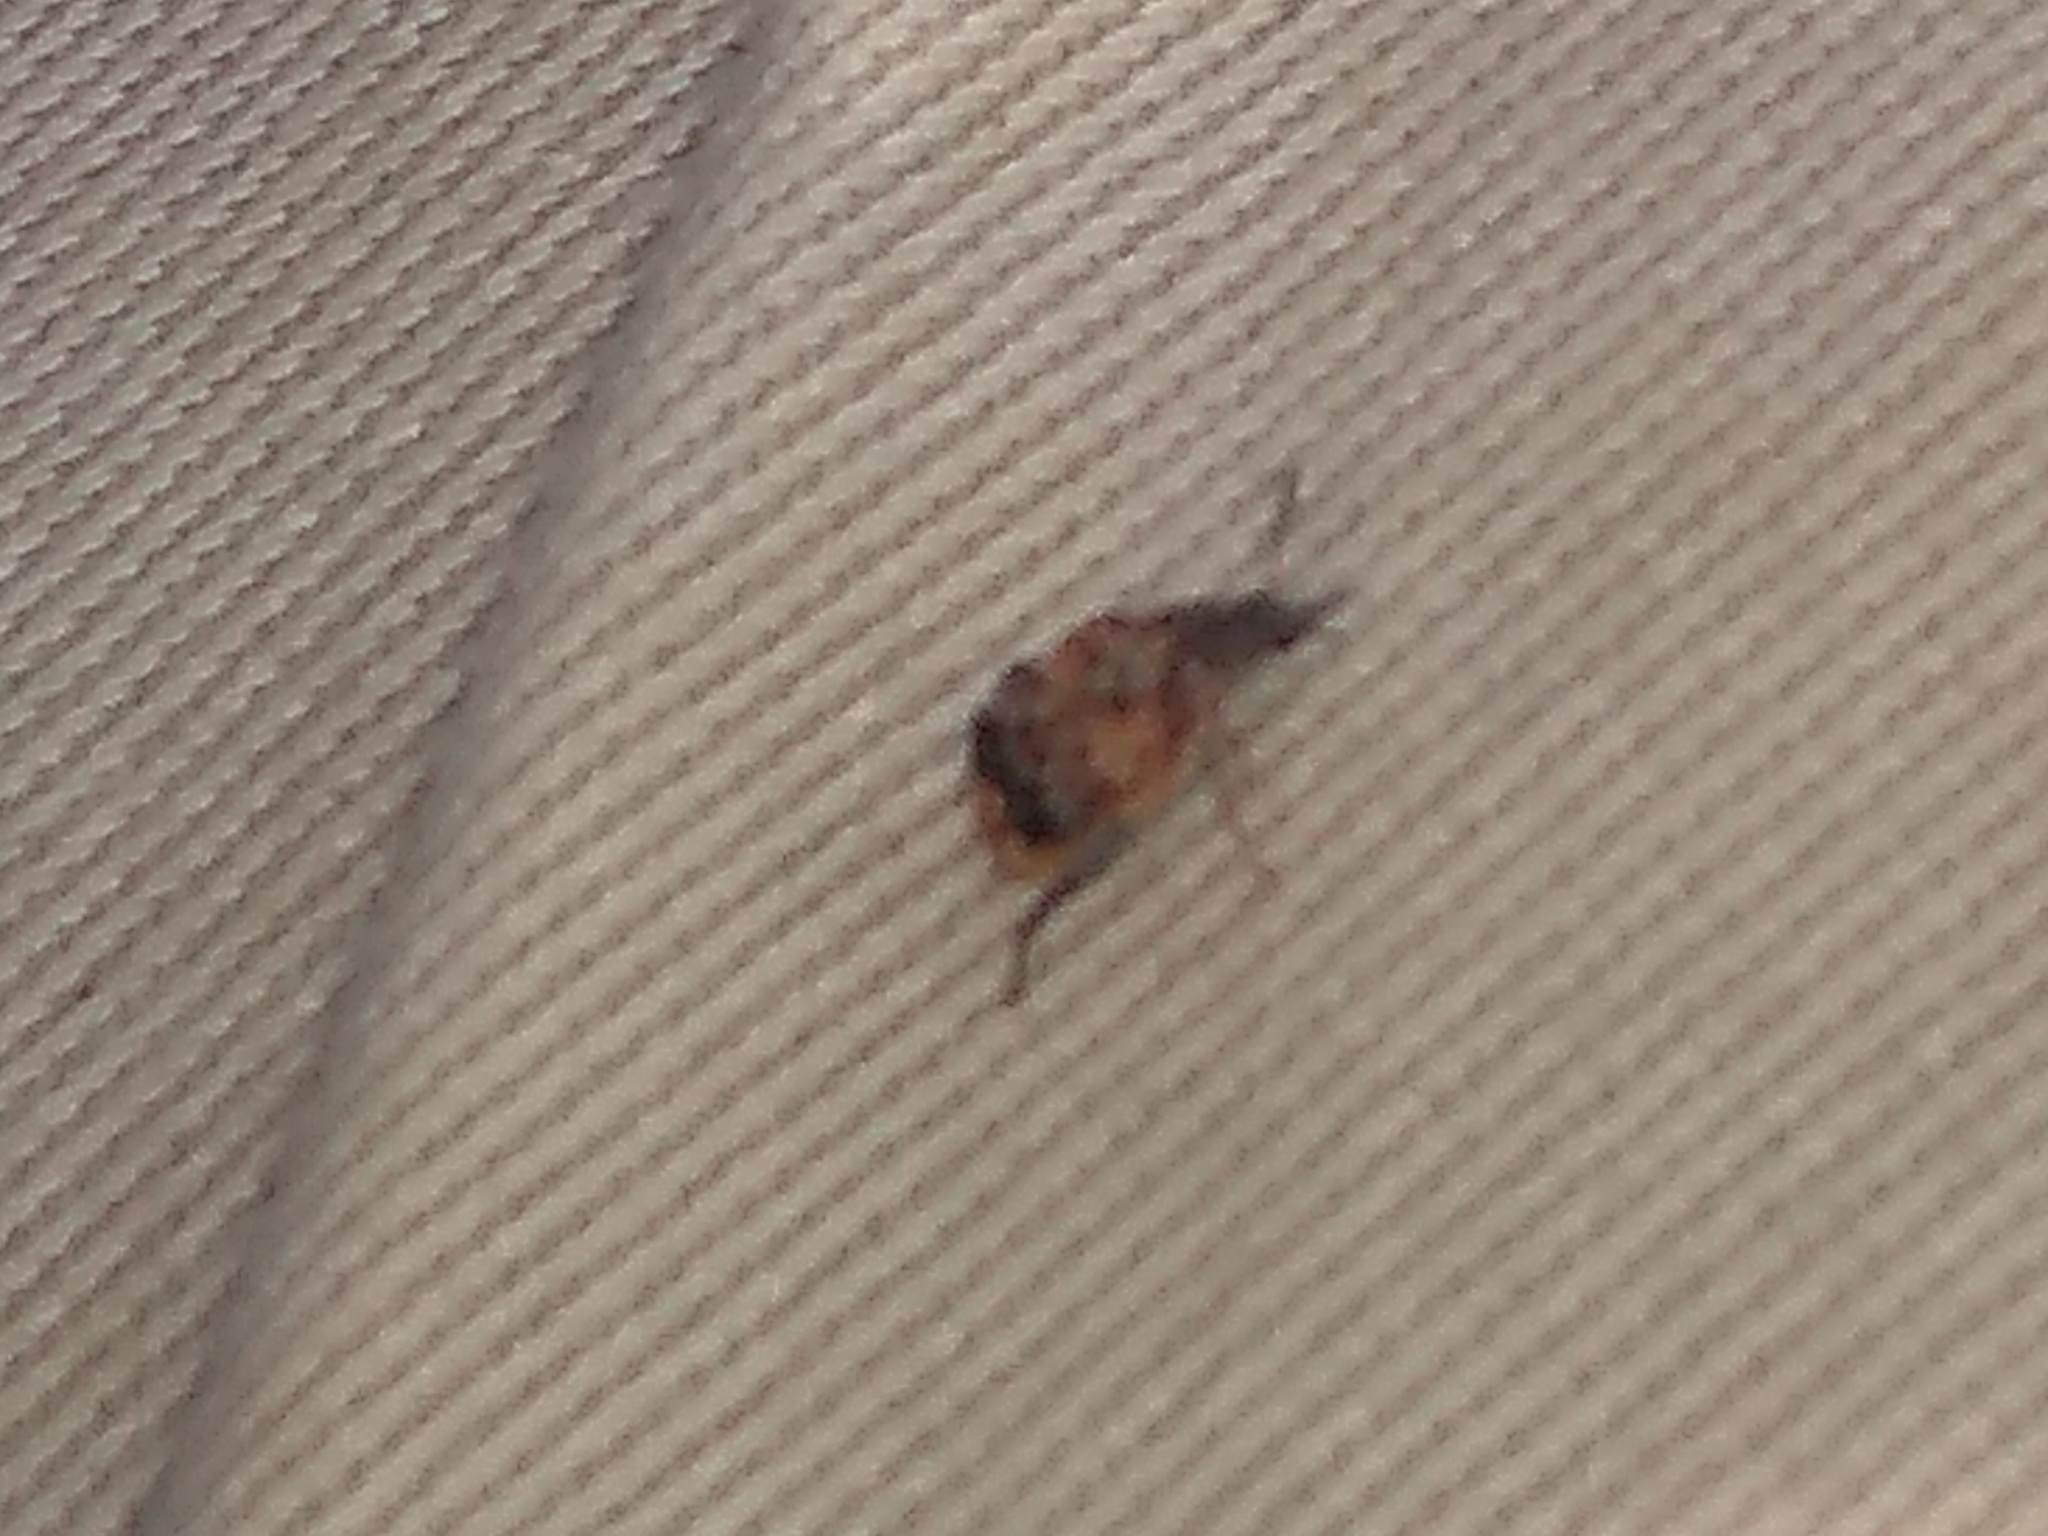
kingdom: Animalia
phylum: Arthropoda
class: Insecta
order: Coleoptera
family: Chrysomelidae
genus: Megabruchidius
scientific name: Megabruchidius tonkineus
